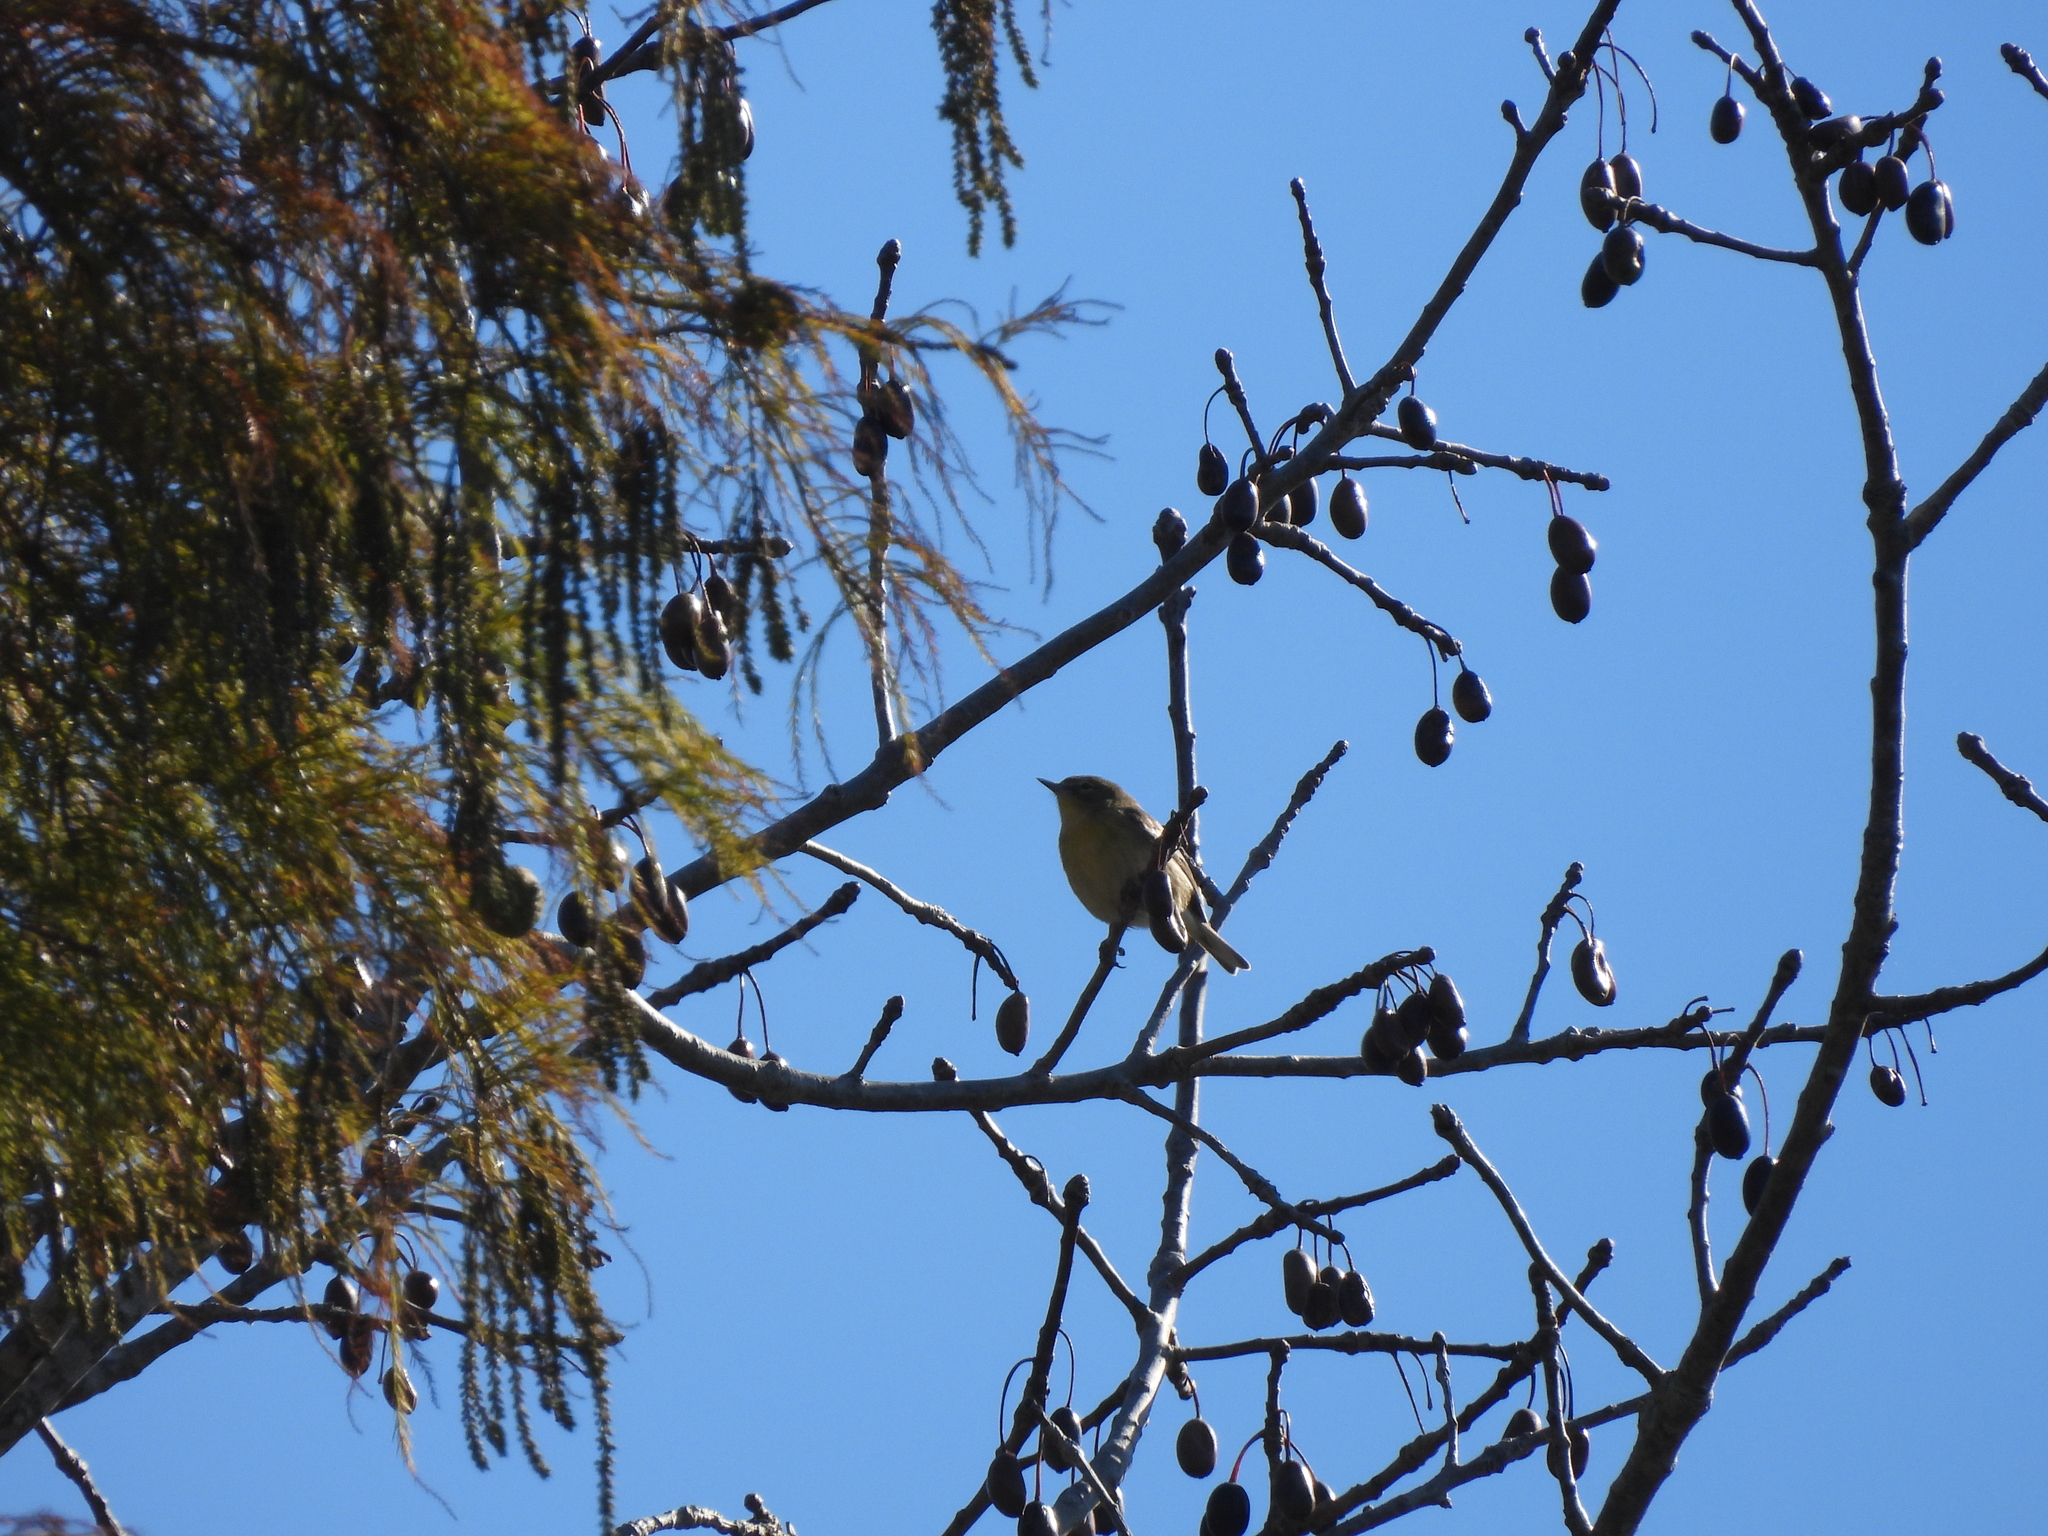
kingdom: Animalia
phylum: Chordata
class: Aves
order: Passeriformes
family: Parulidae
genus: Setophaga
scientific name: Setophaga pinus
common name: Pine warbler
